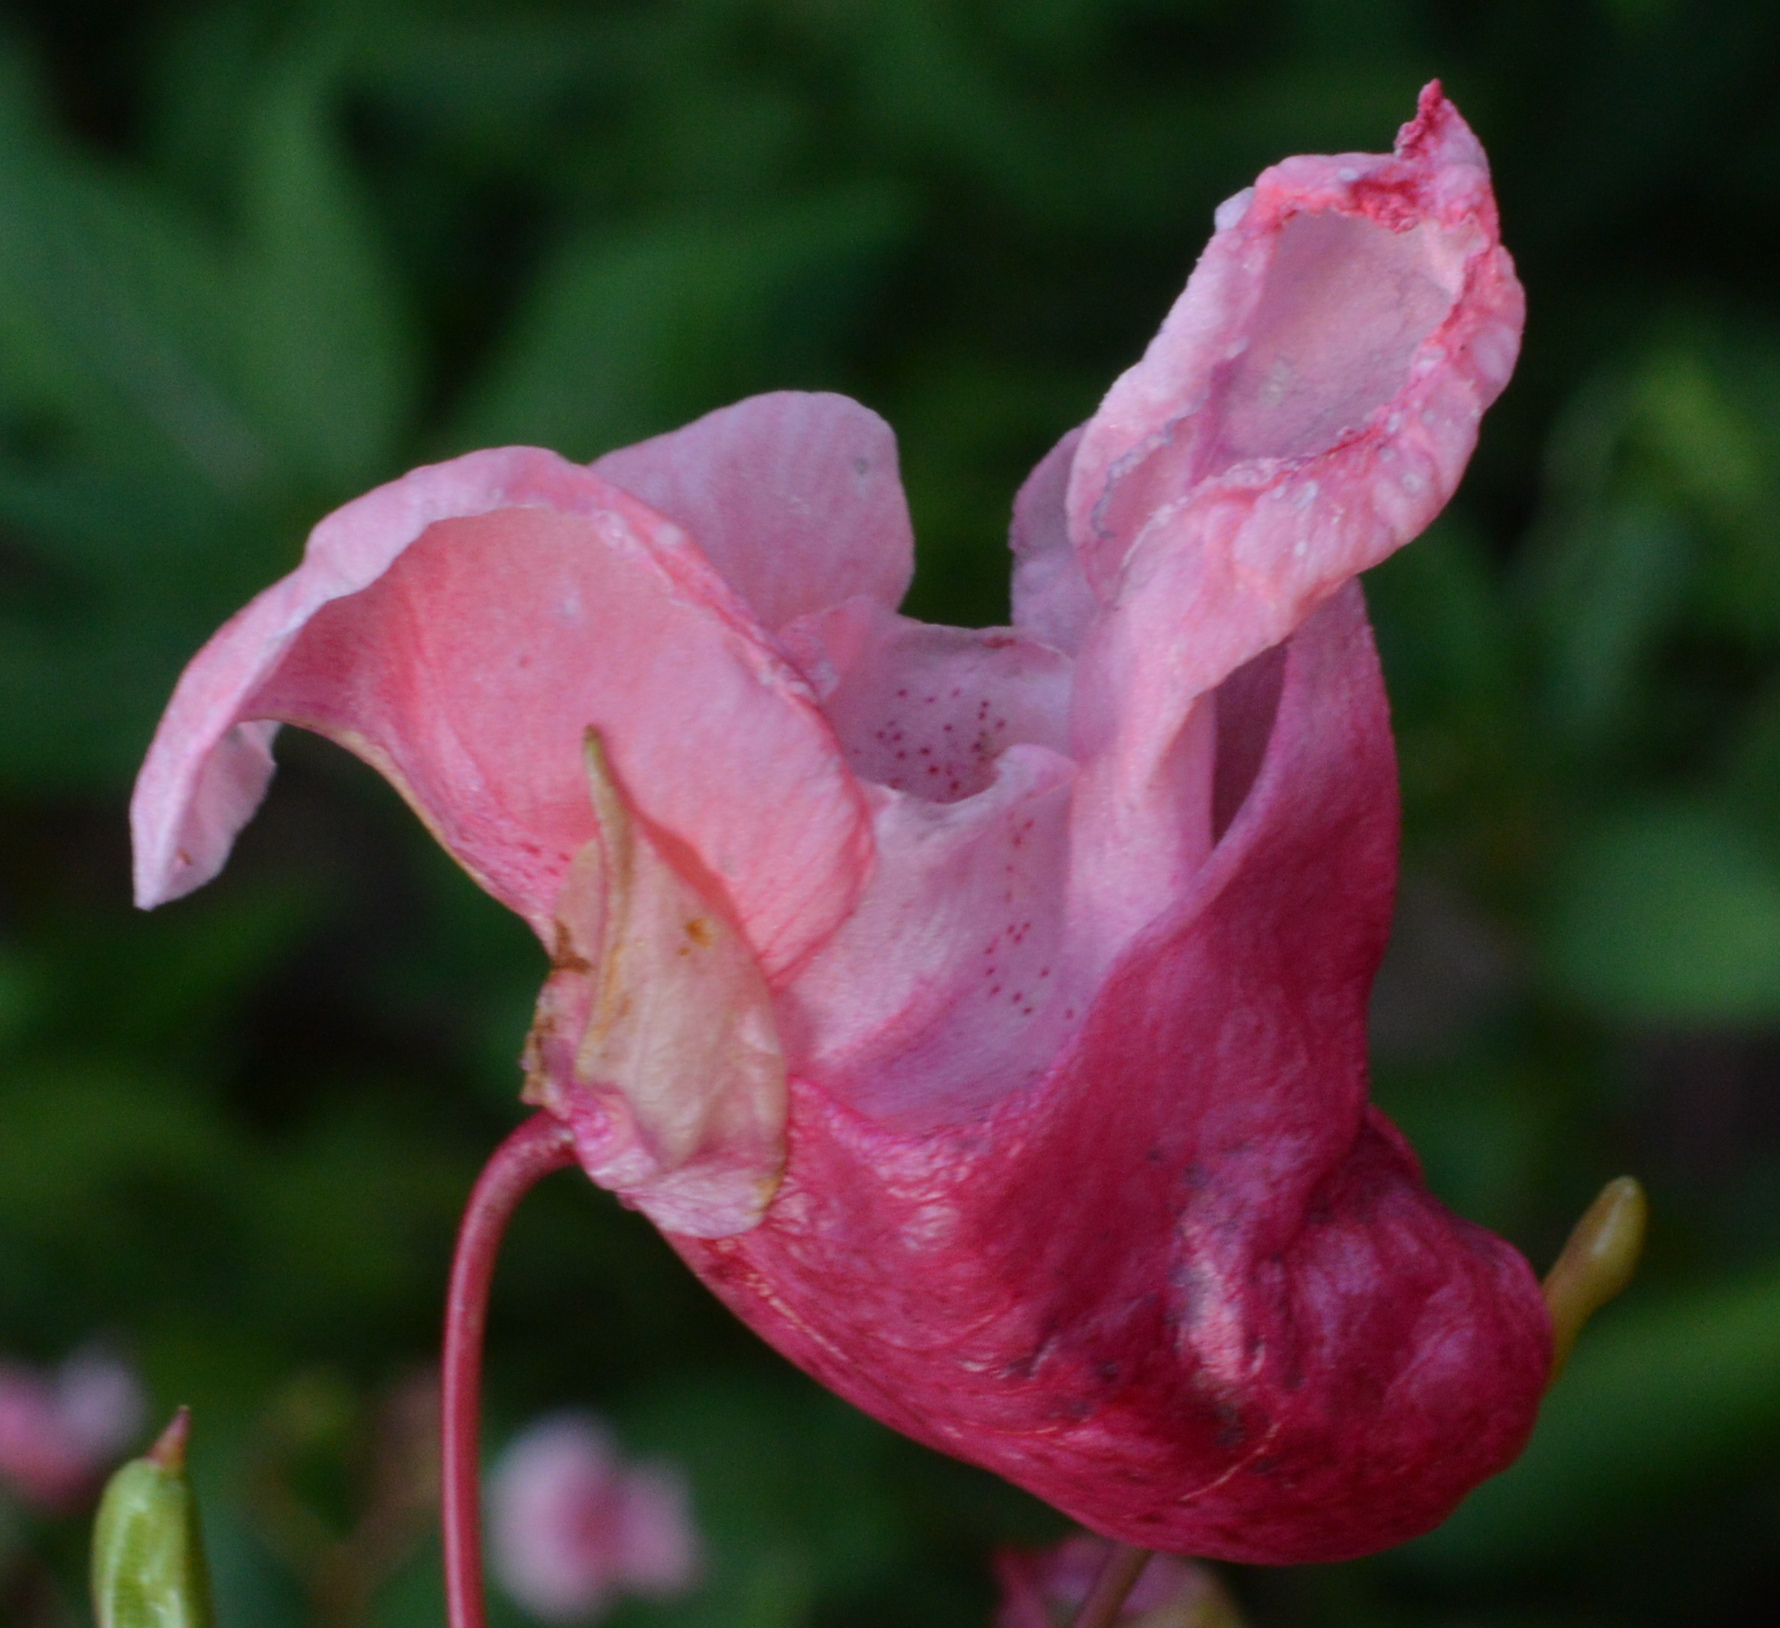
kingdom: Plantae
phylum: Tracheophyta
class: Magnoliopsida
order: Ericales
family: Balsaminaceae
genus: Impatiens
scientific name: Impatiens glandulifera
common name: Himalayan balsam
